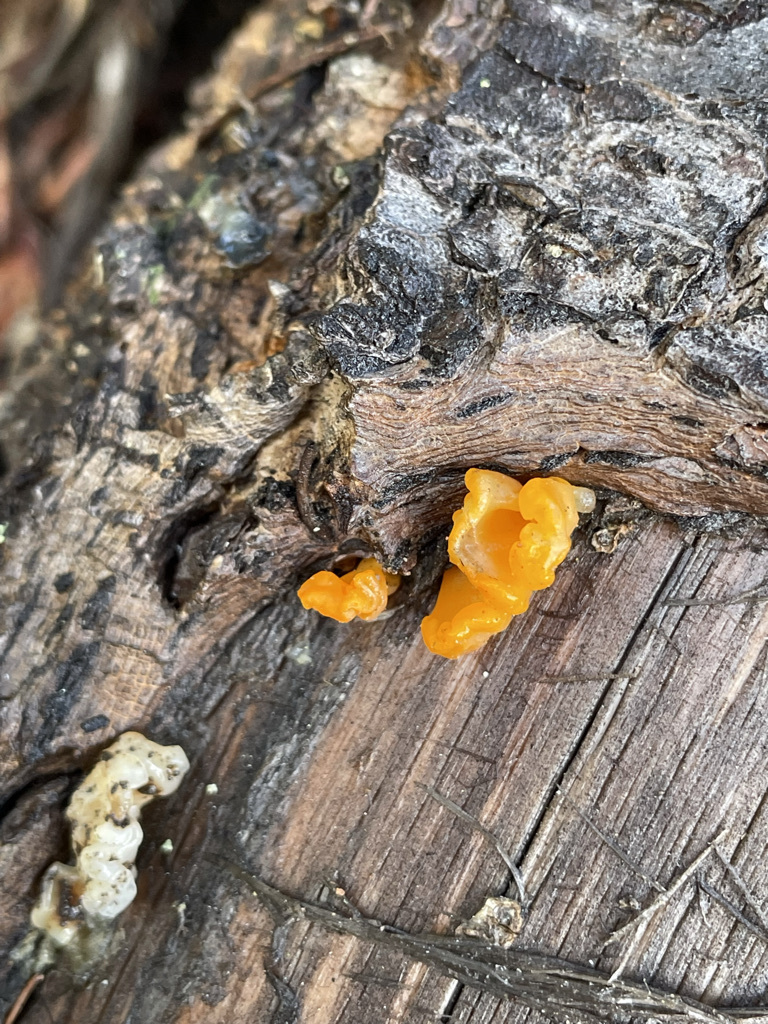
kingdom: Fungi
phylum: Basidiomycota
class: Dacrymycetes
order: Dacrymycetales
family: Dacrymycetaceae
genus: Dacrymyces
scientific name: Dacrymyces chrysospermus
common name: Orange jelly spot
